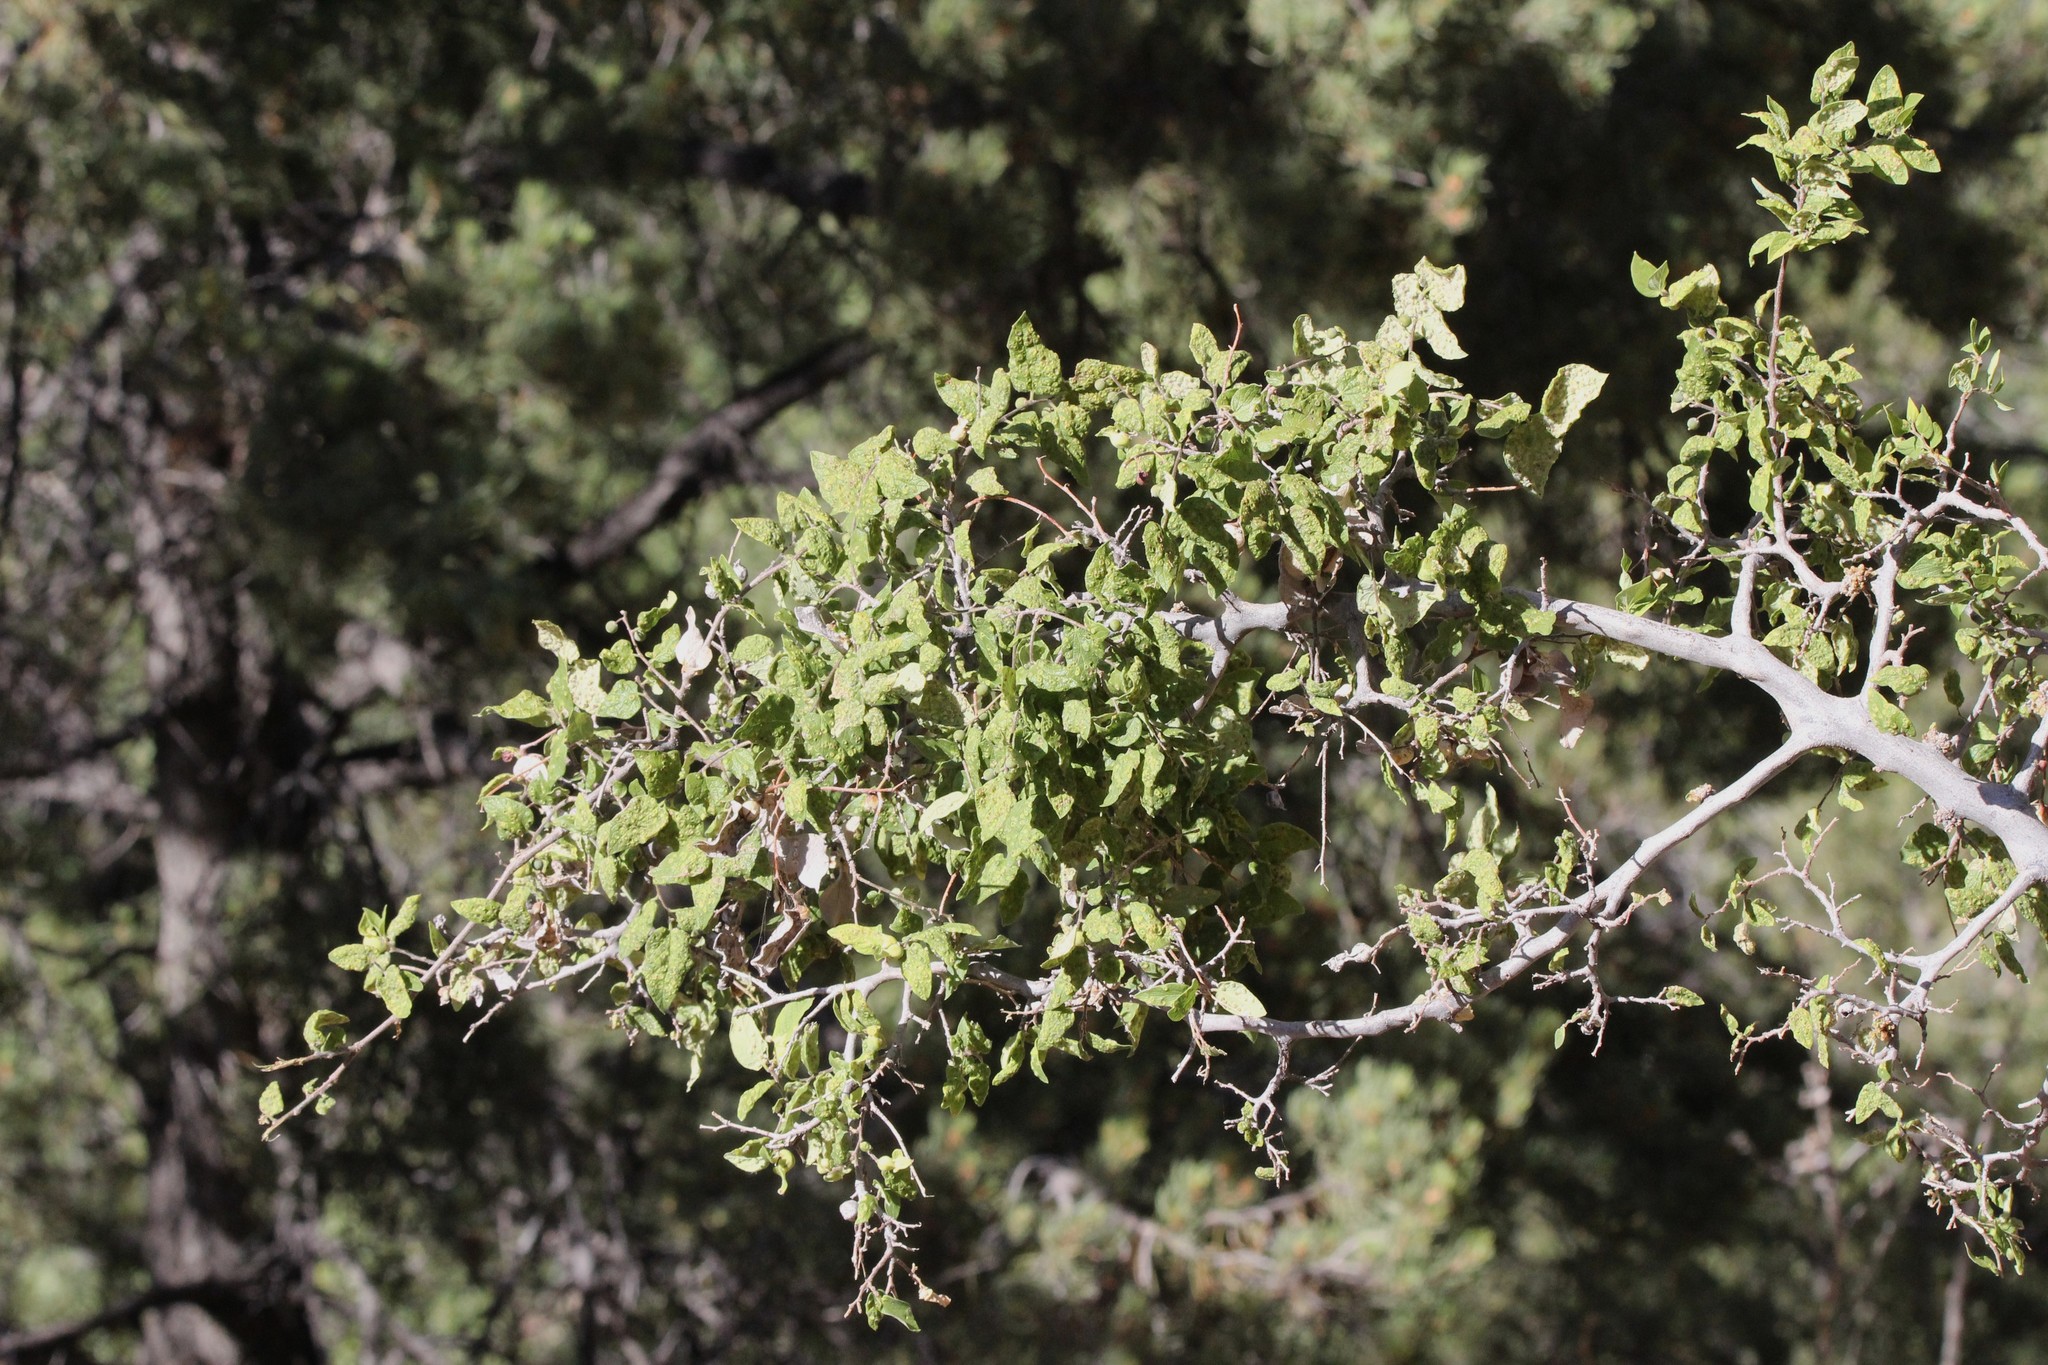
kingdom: Plantae
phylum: Tracheophyta
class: Magnoliopsida
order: Rosales
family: Cannabaceae
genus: Celtis
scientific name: Celtis reticulata
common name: Netleaf hackberry
